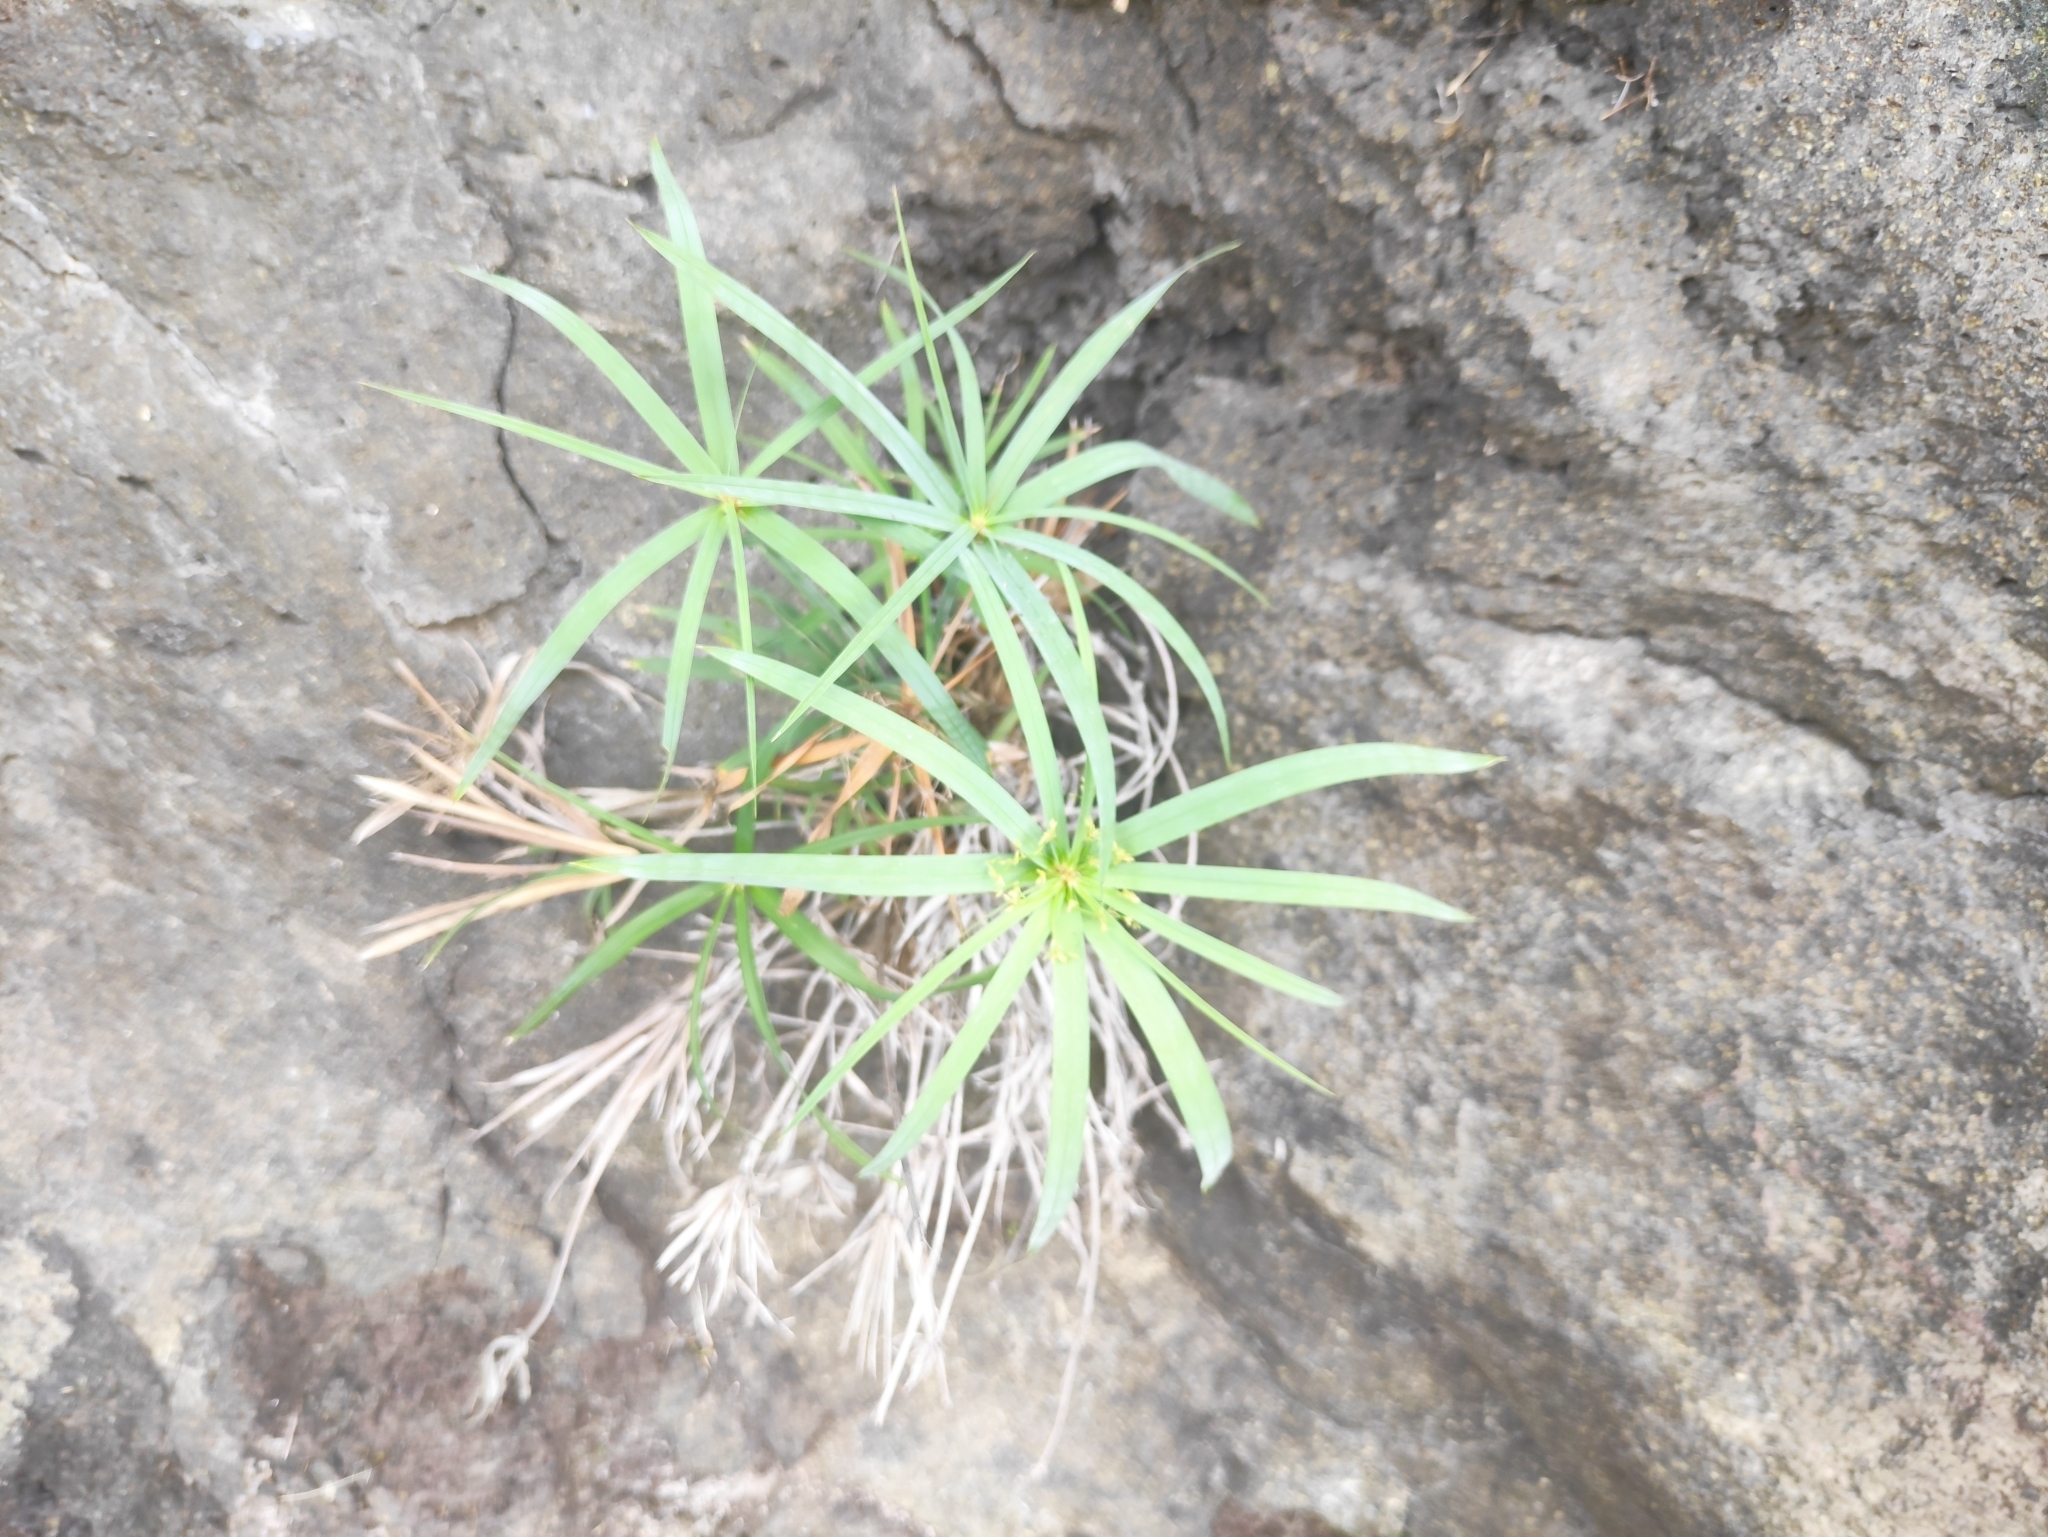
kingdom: Plantae
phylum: Tracheophyta
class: Liliopsida
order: Poales
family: Cyperaceae
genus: Cyperus
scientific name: Cyperus alternifolius
